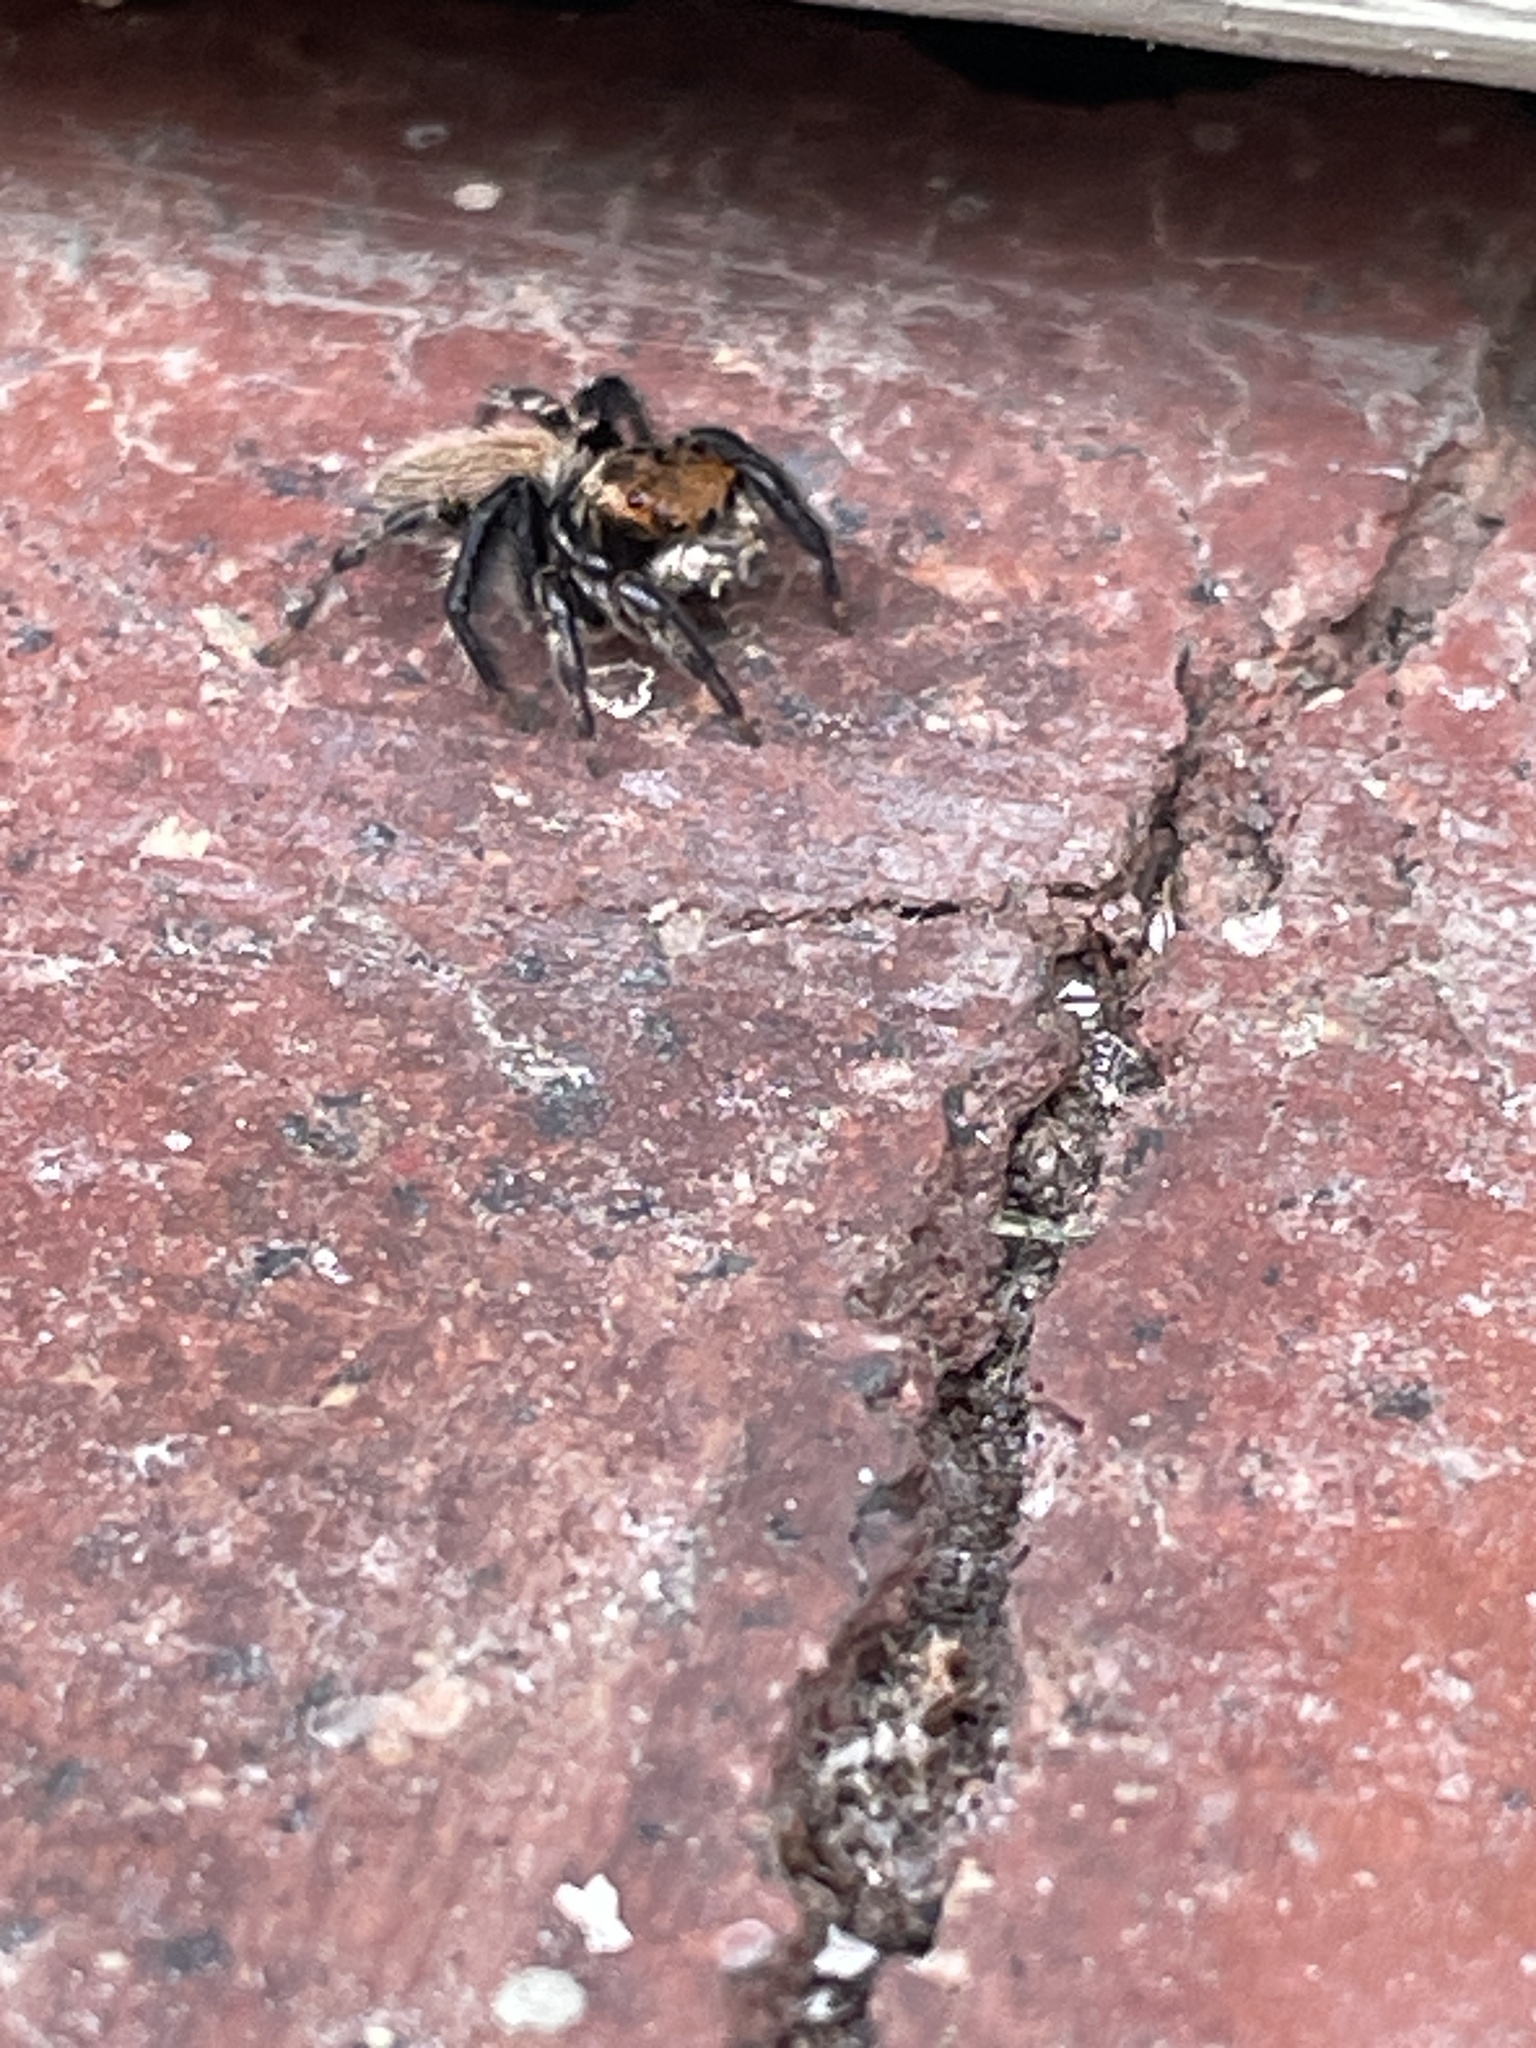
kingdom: Animalia
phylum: Arthropoda
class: Arachnida
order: Araneae
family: Salticidae
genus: Maratus
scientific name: Maratus griseus
